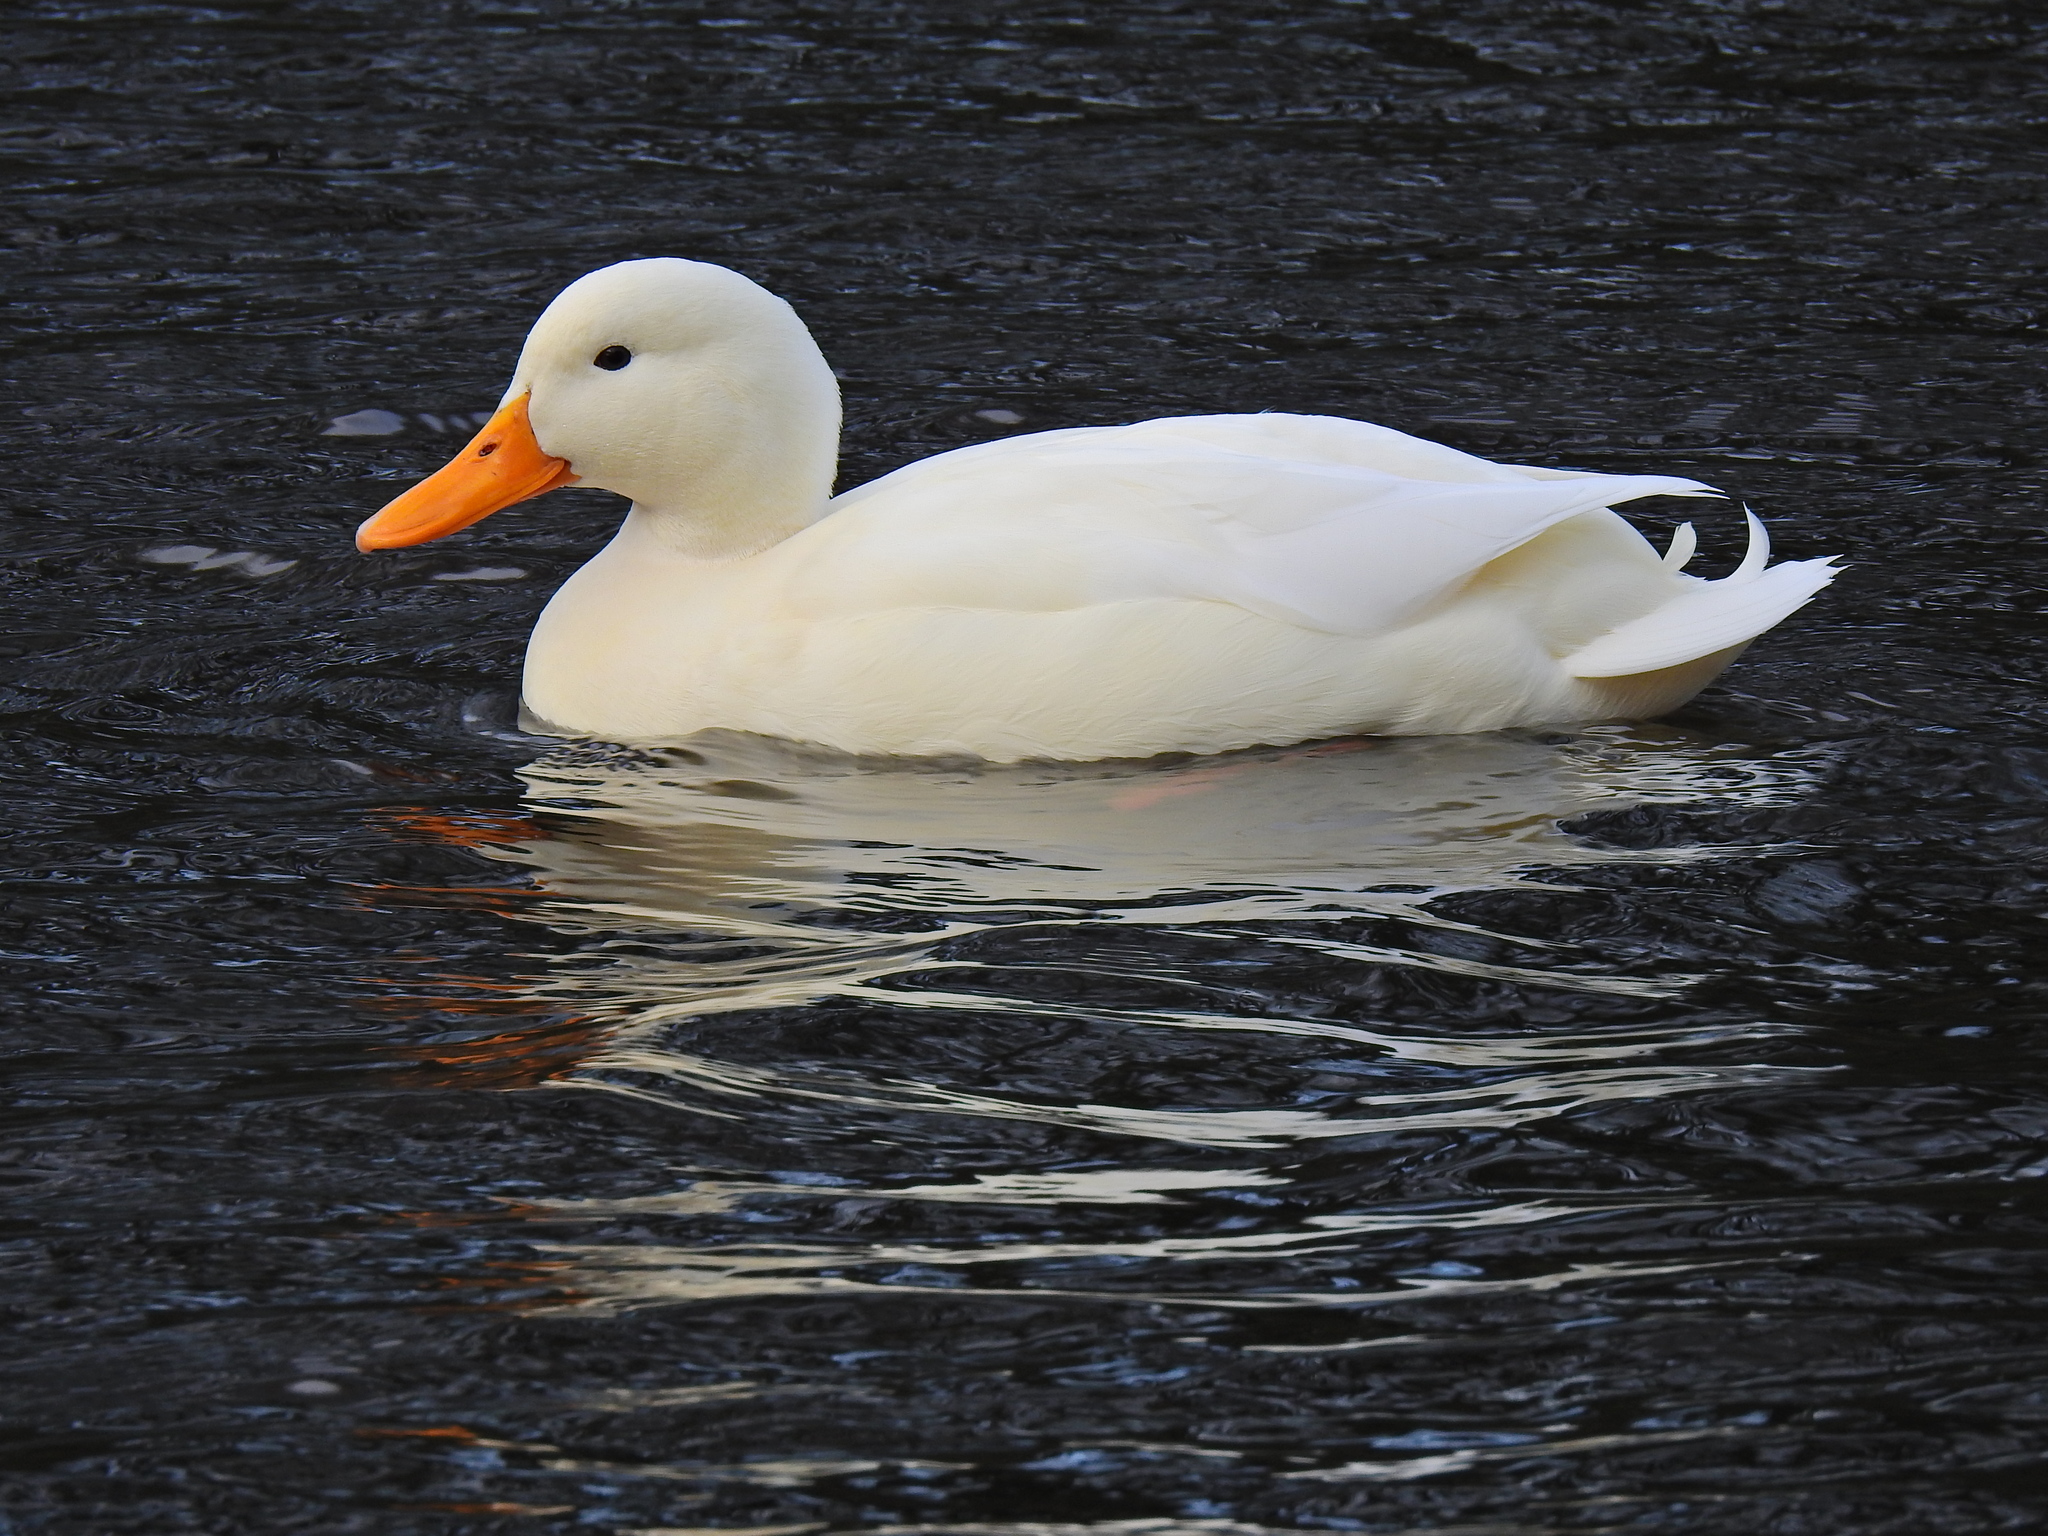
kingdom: Animalia
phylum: Chordata
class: Aves
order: Anseriformes
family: Anatidae
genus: Anas
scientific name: Anas platyrhynchos
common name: Mallard
